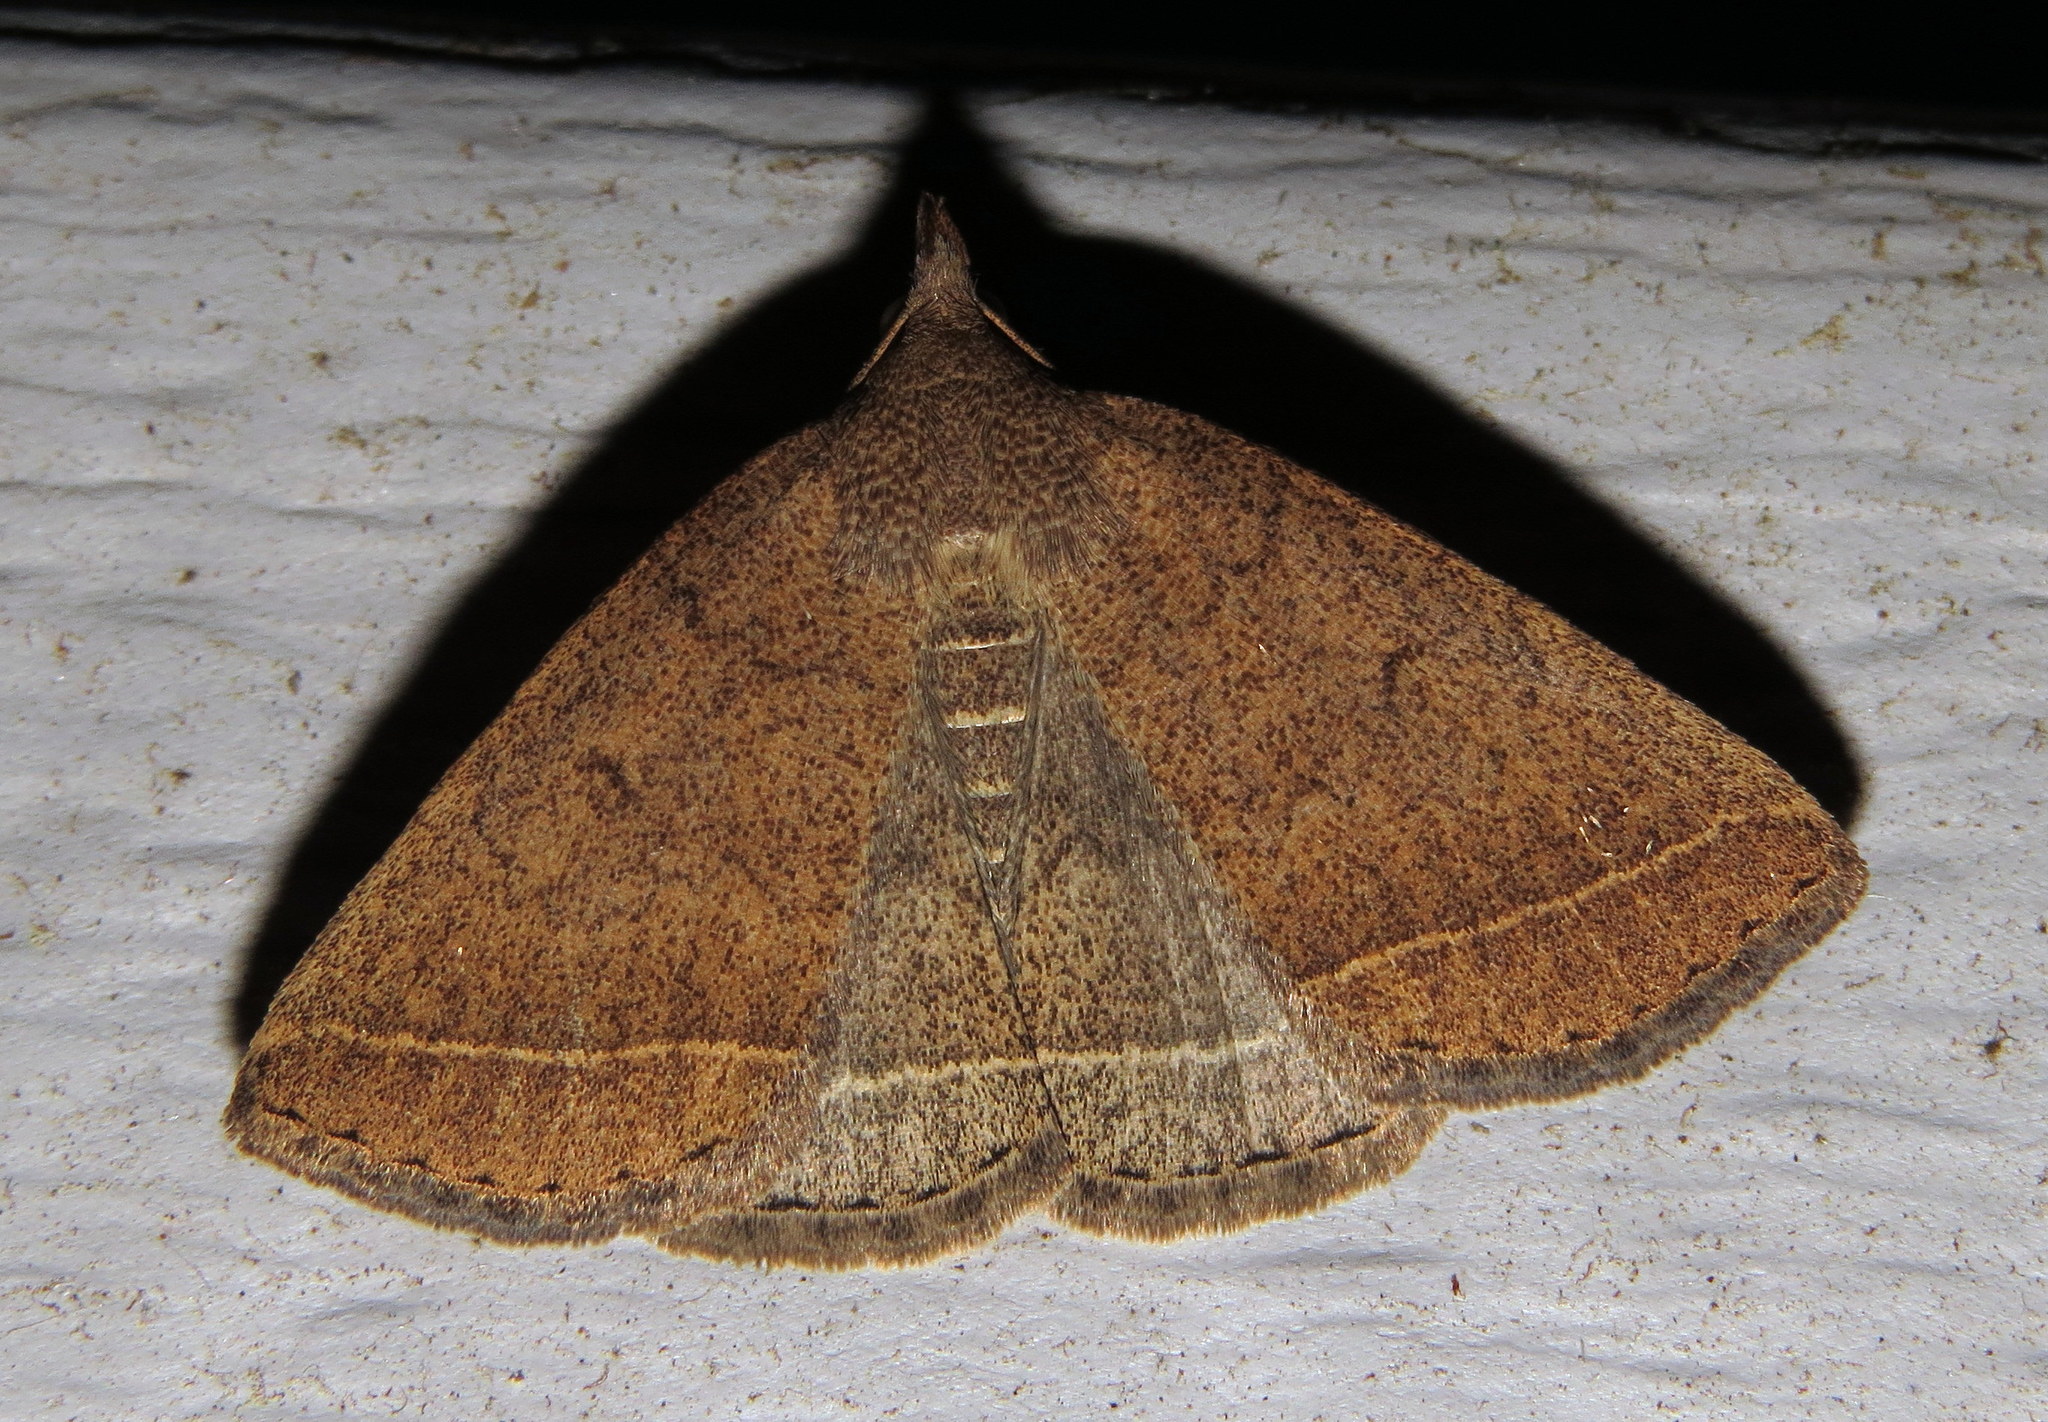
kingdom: Animalia
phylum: Arthropoda
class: Insecta
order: Lepidoptera
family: Erebidae
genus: Zanclognatha
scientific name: Zanclognatha marcidilinea
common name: Yellowish fan-foot
